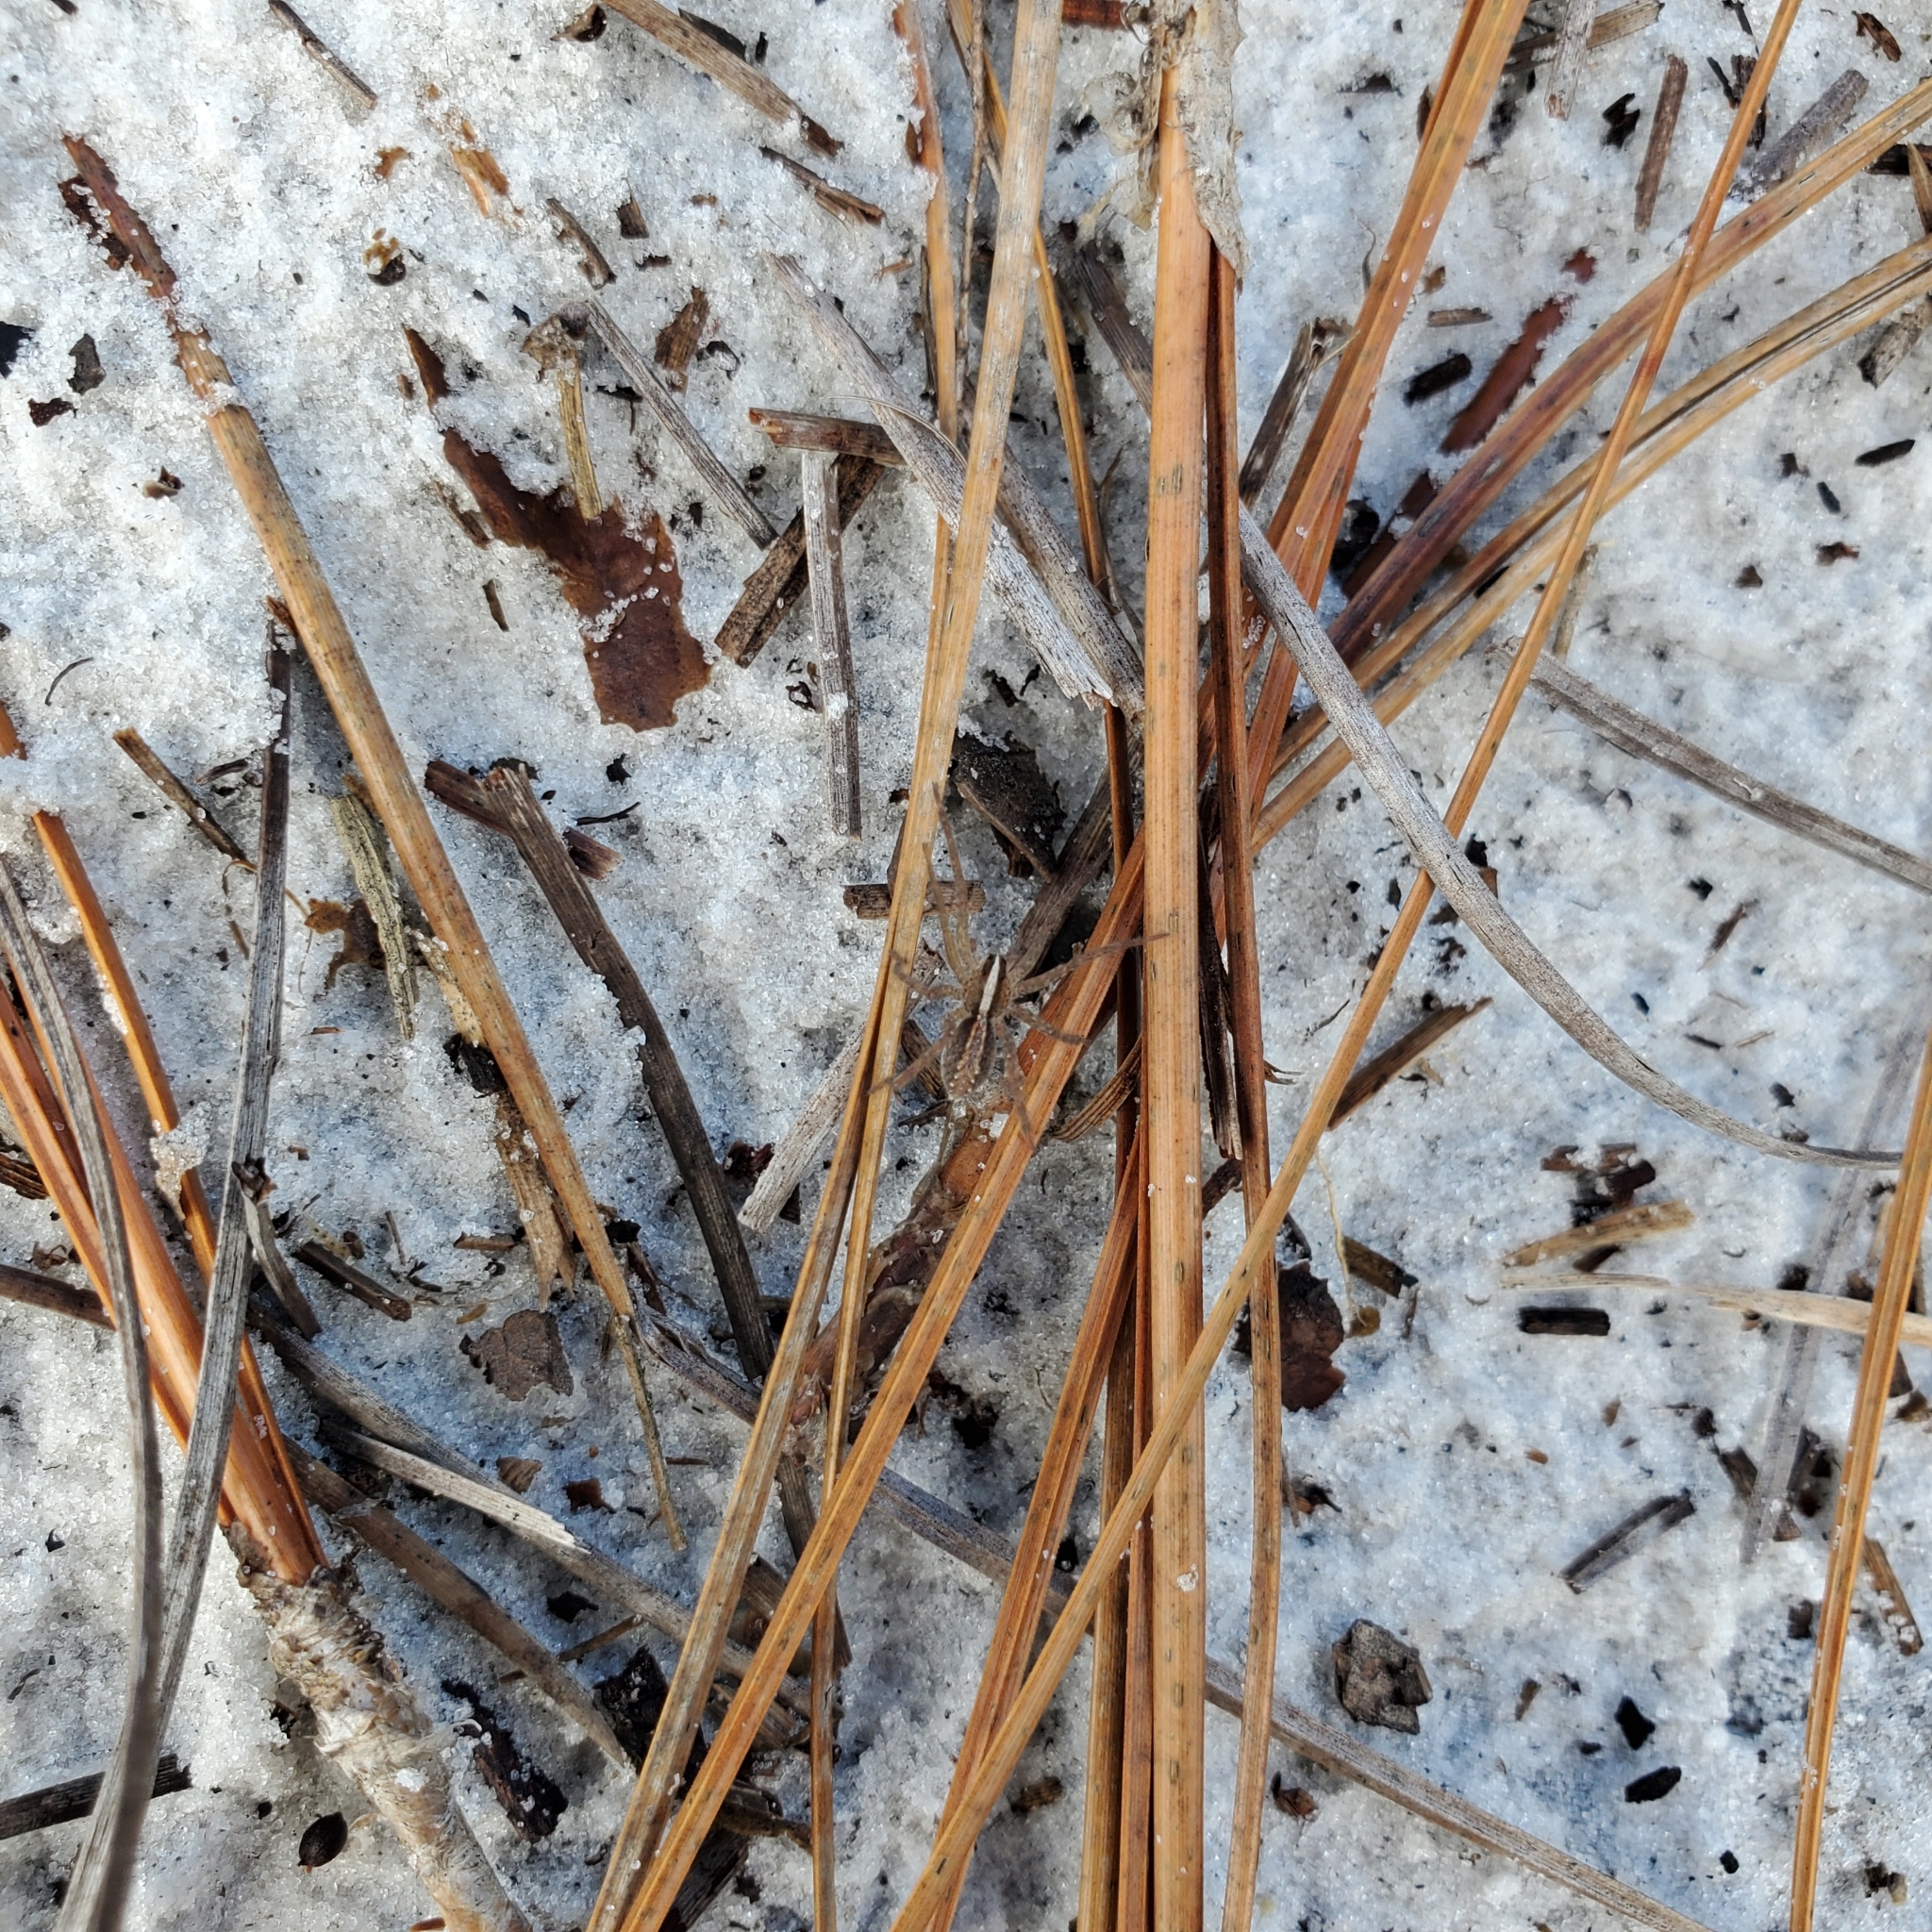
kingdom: Animalia
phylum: Arthropoda
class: Arachnida
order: Araneae
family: Lycosidae
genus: Rabidosa
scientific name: Rabidosa hentzi
